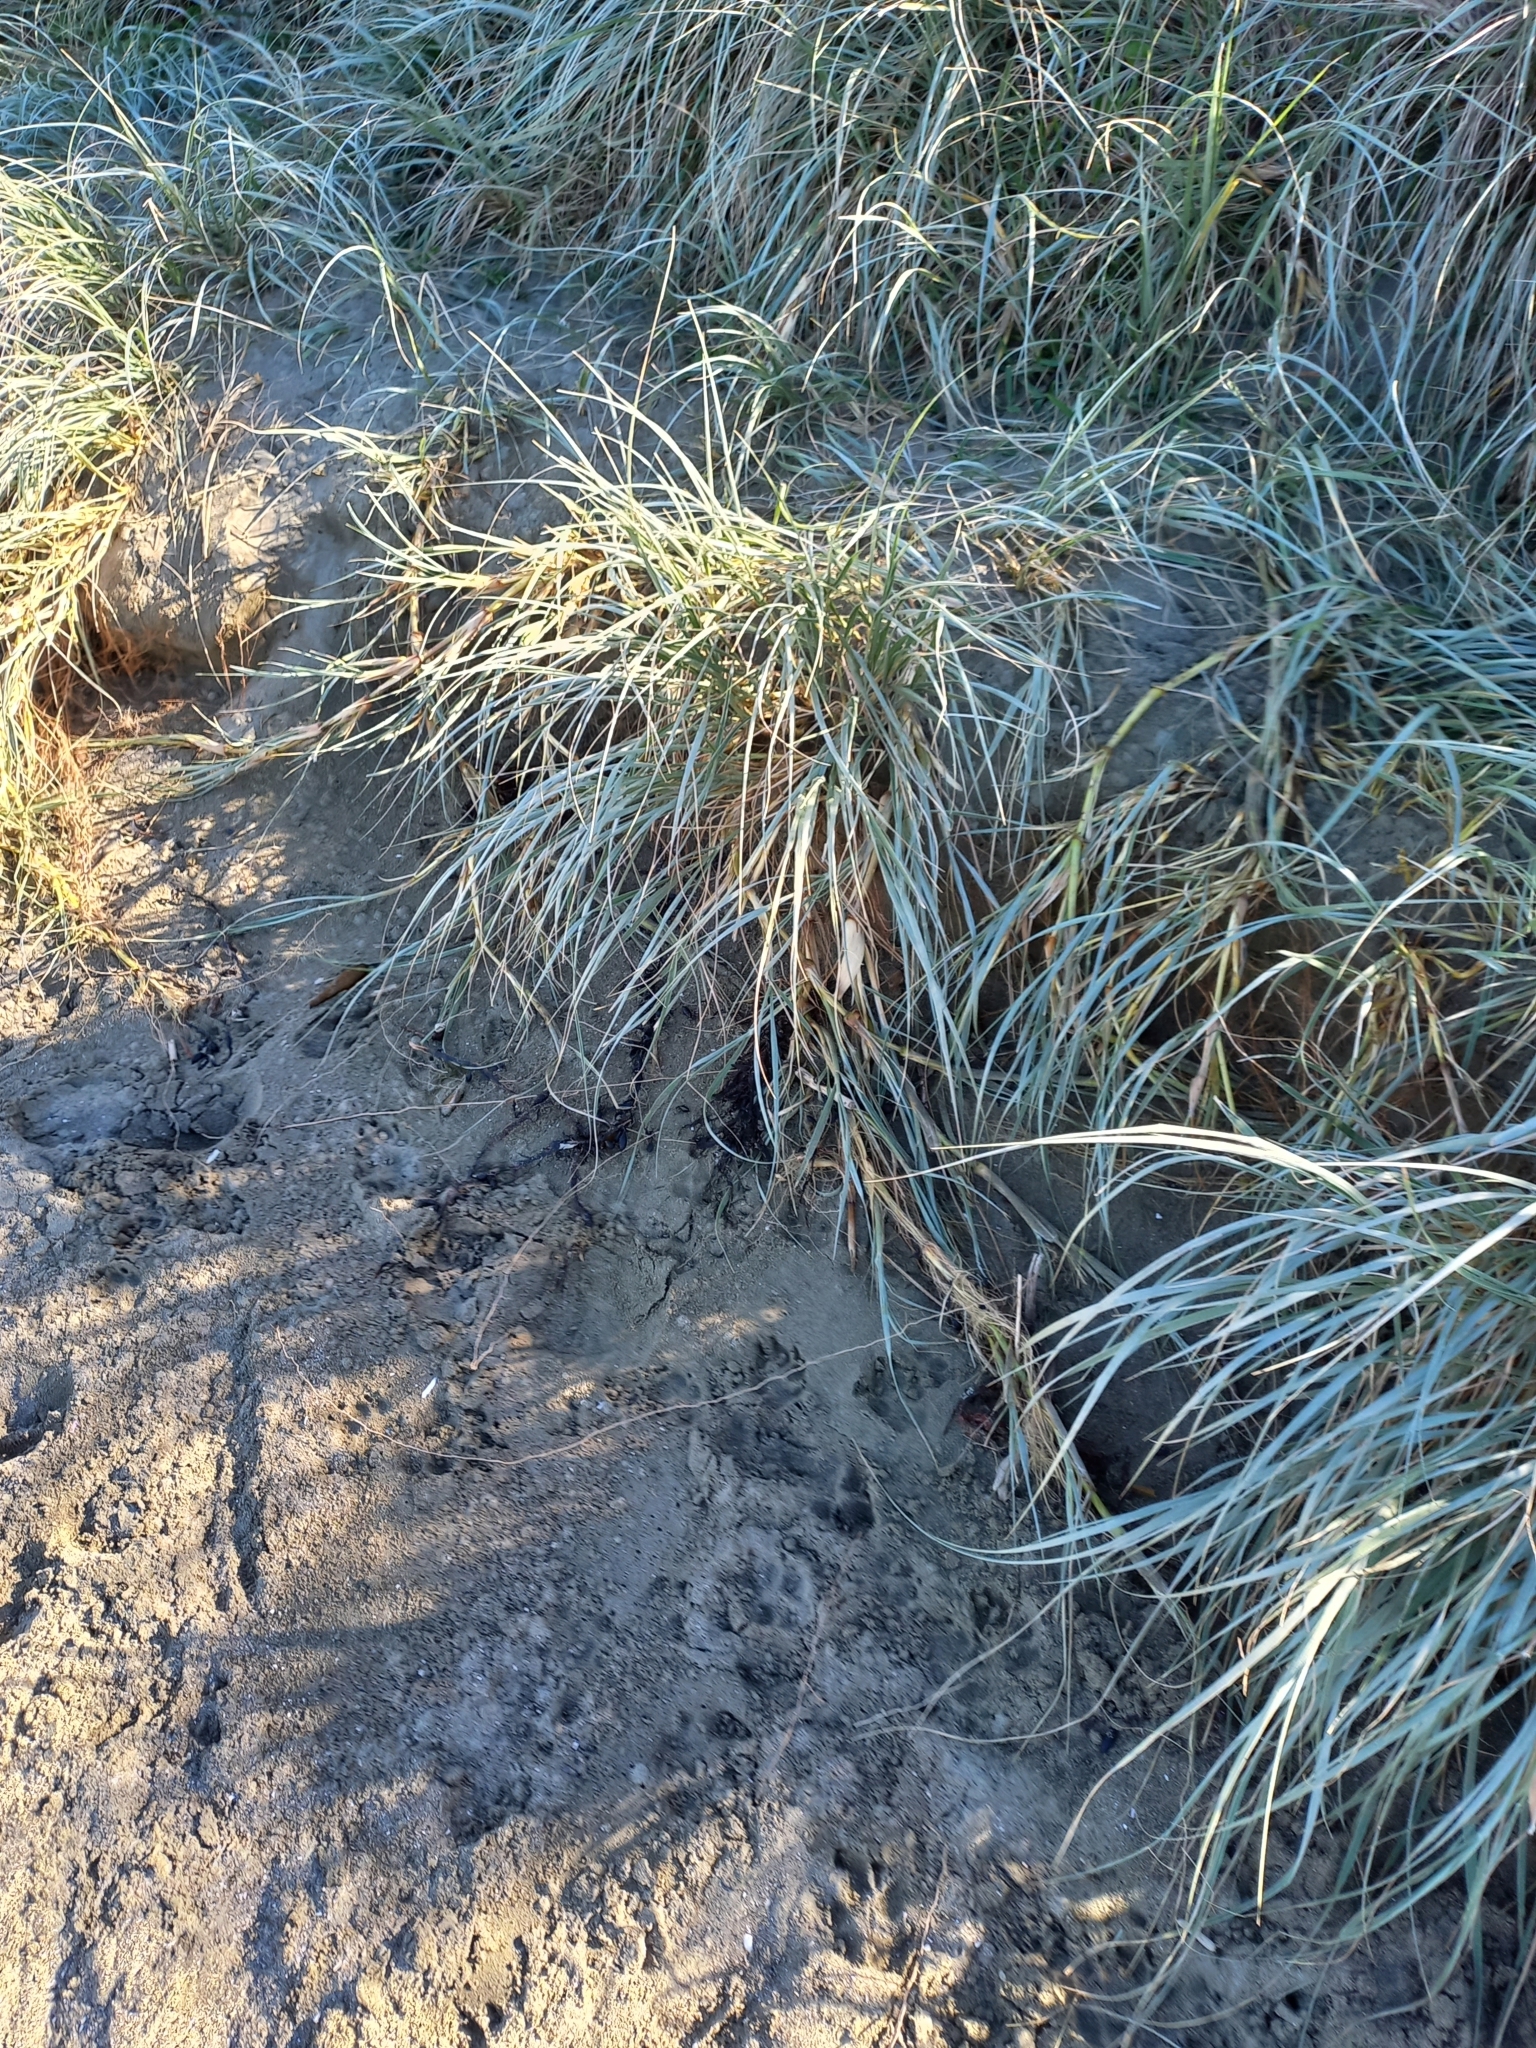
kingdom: Plantae
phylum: Tracheophyta
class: Liliopsida
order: Poales
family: Poaceae
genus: Spinifex
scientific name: Spinifex sericeus
